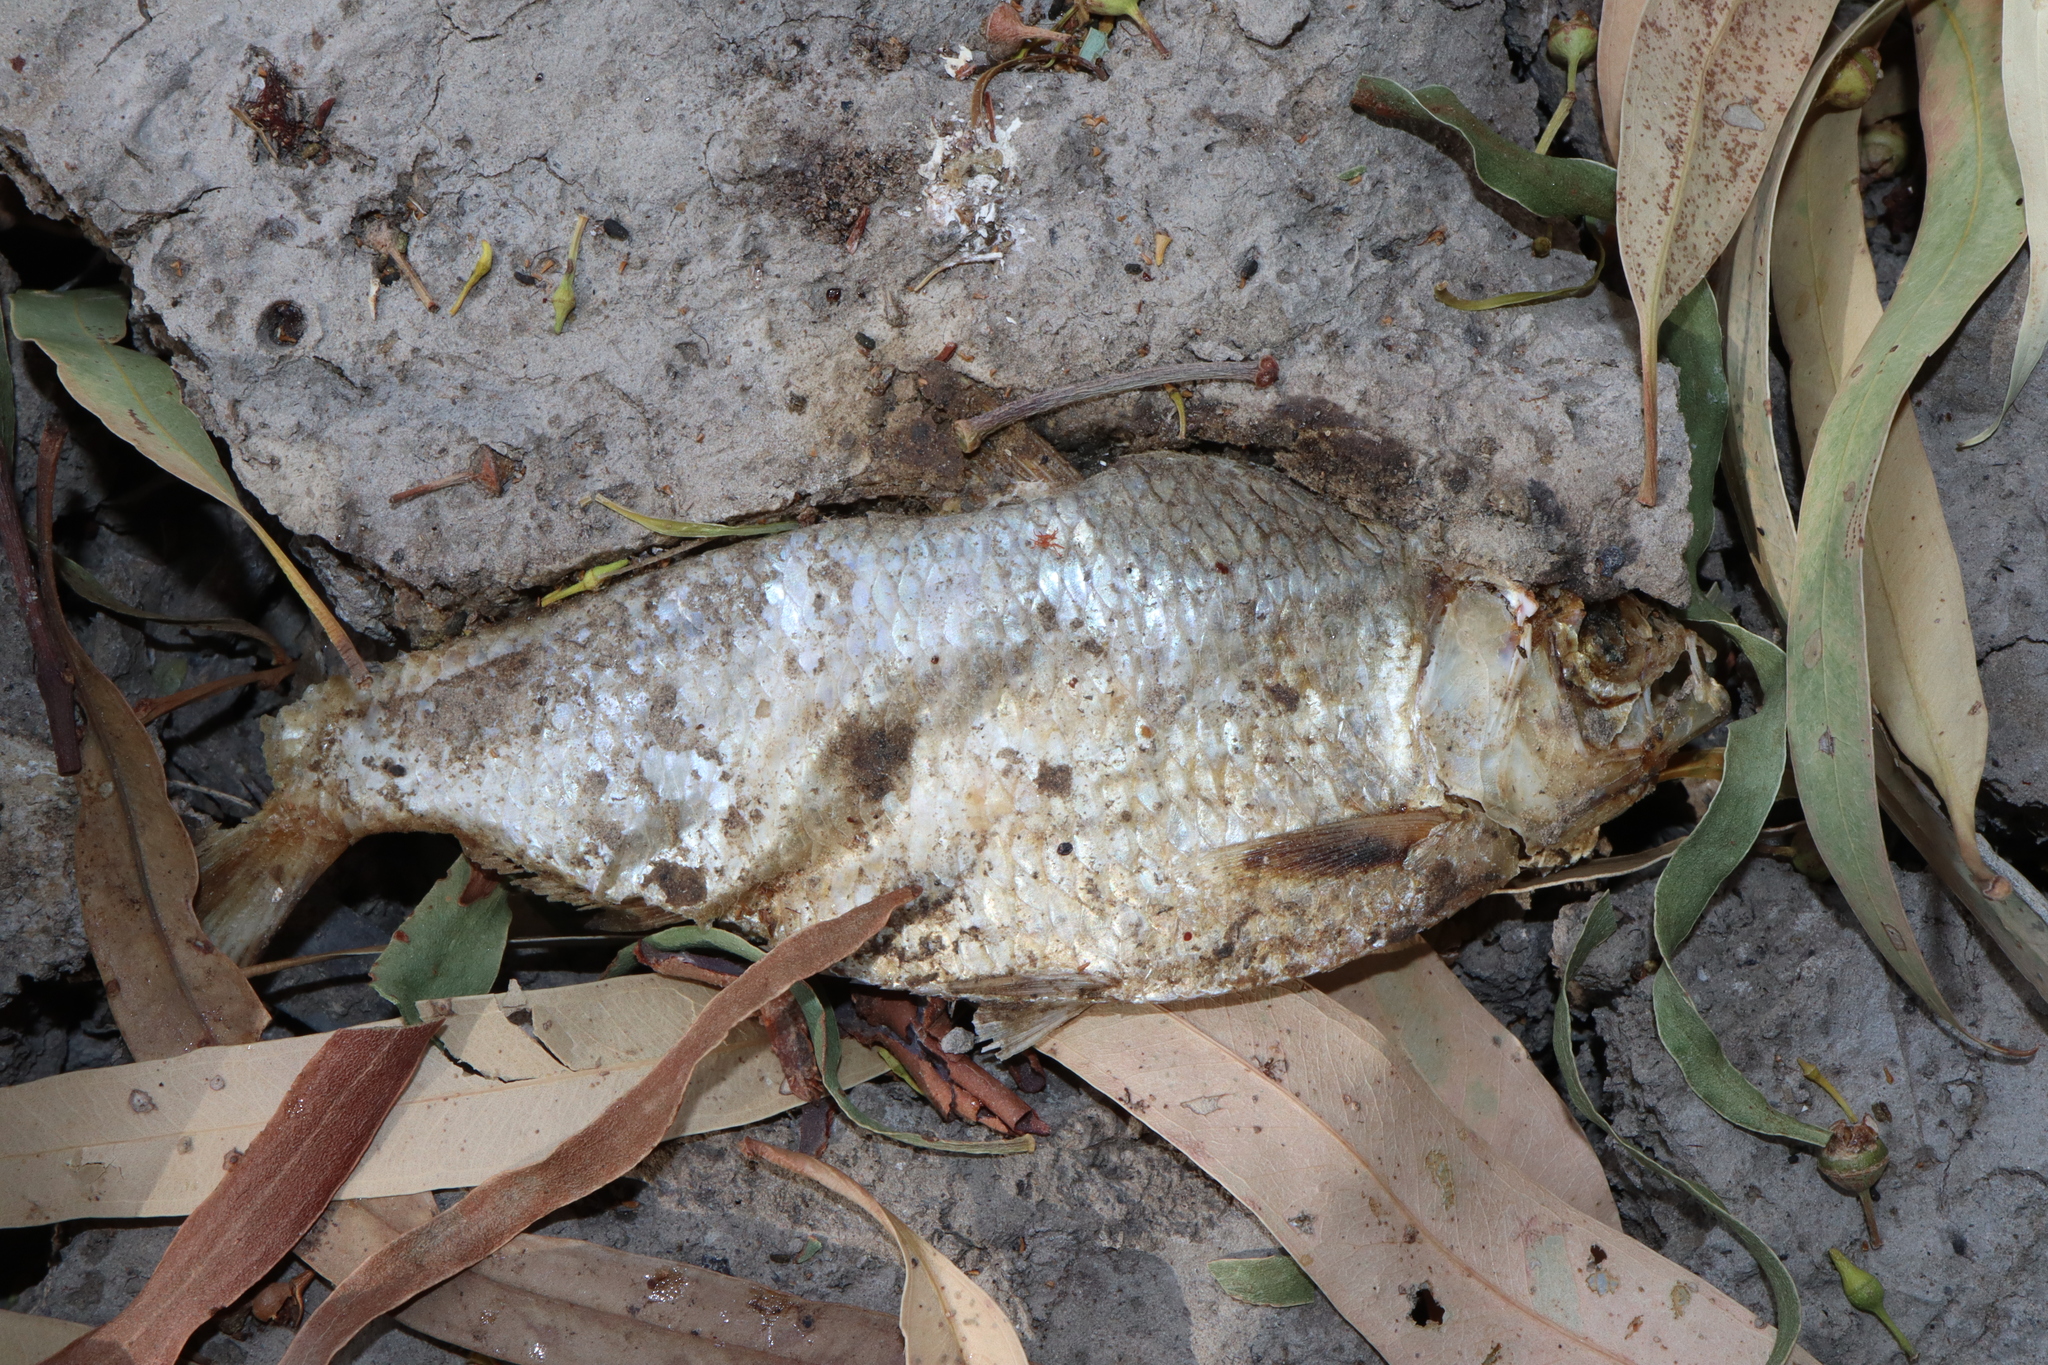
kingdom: Animalia
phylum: Chordata
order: Clupeiformes
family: Clupeidae
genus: Nematalosa
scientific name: Nematalosa erebi
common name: Australian river gizzard shad
